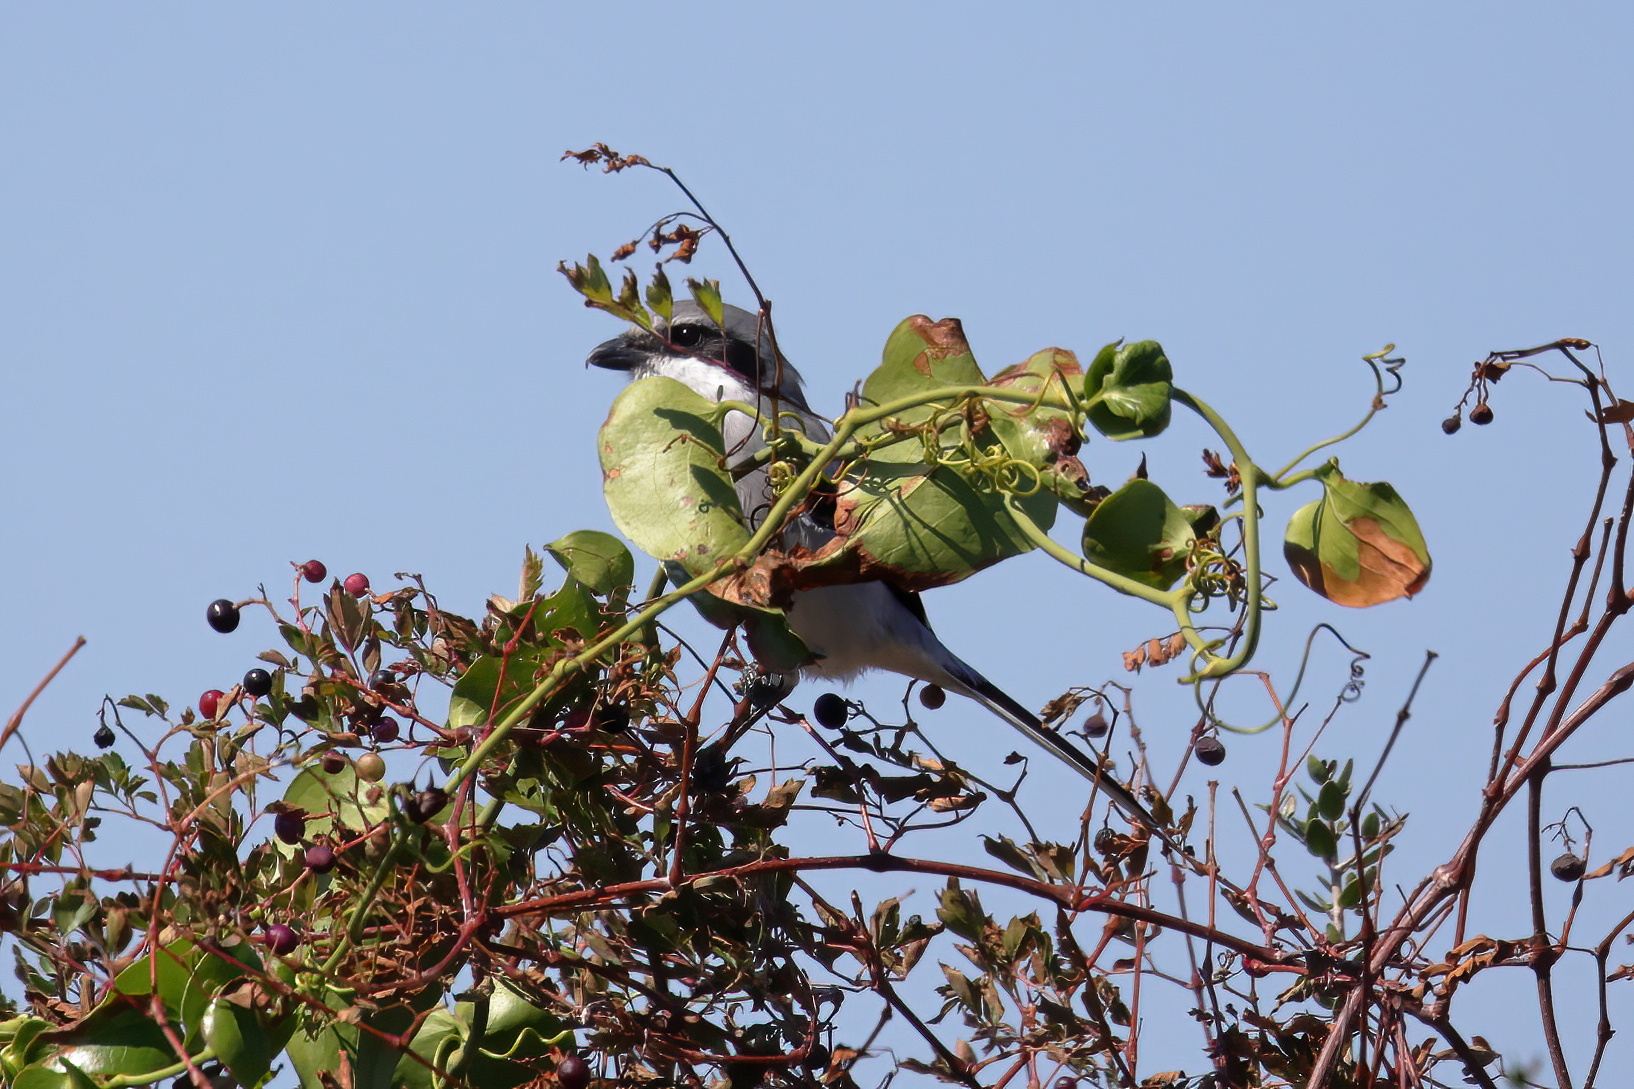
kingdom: Animalia
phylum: Chordata
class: Aves
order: Passeriformes
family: Laniidae
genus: Lanius
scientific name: Lanius ludovicianus
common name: Loggerhead shrike
